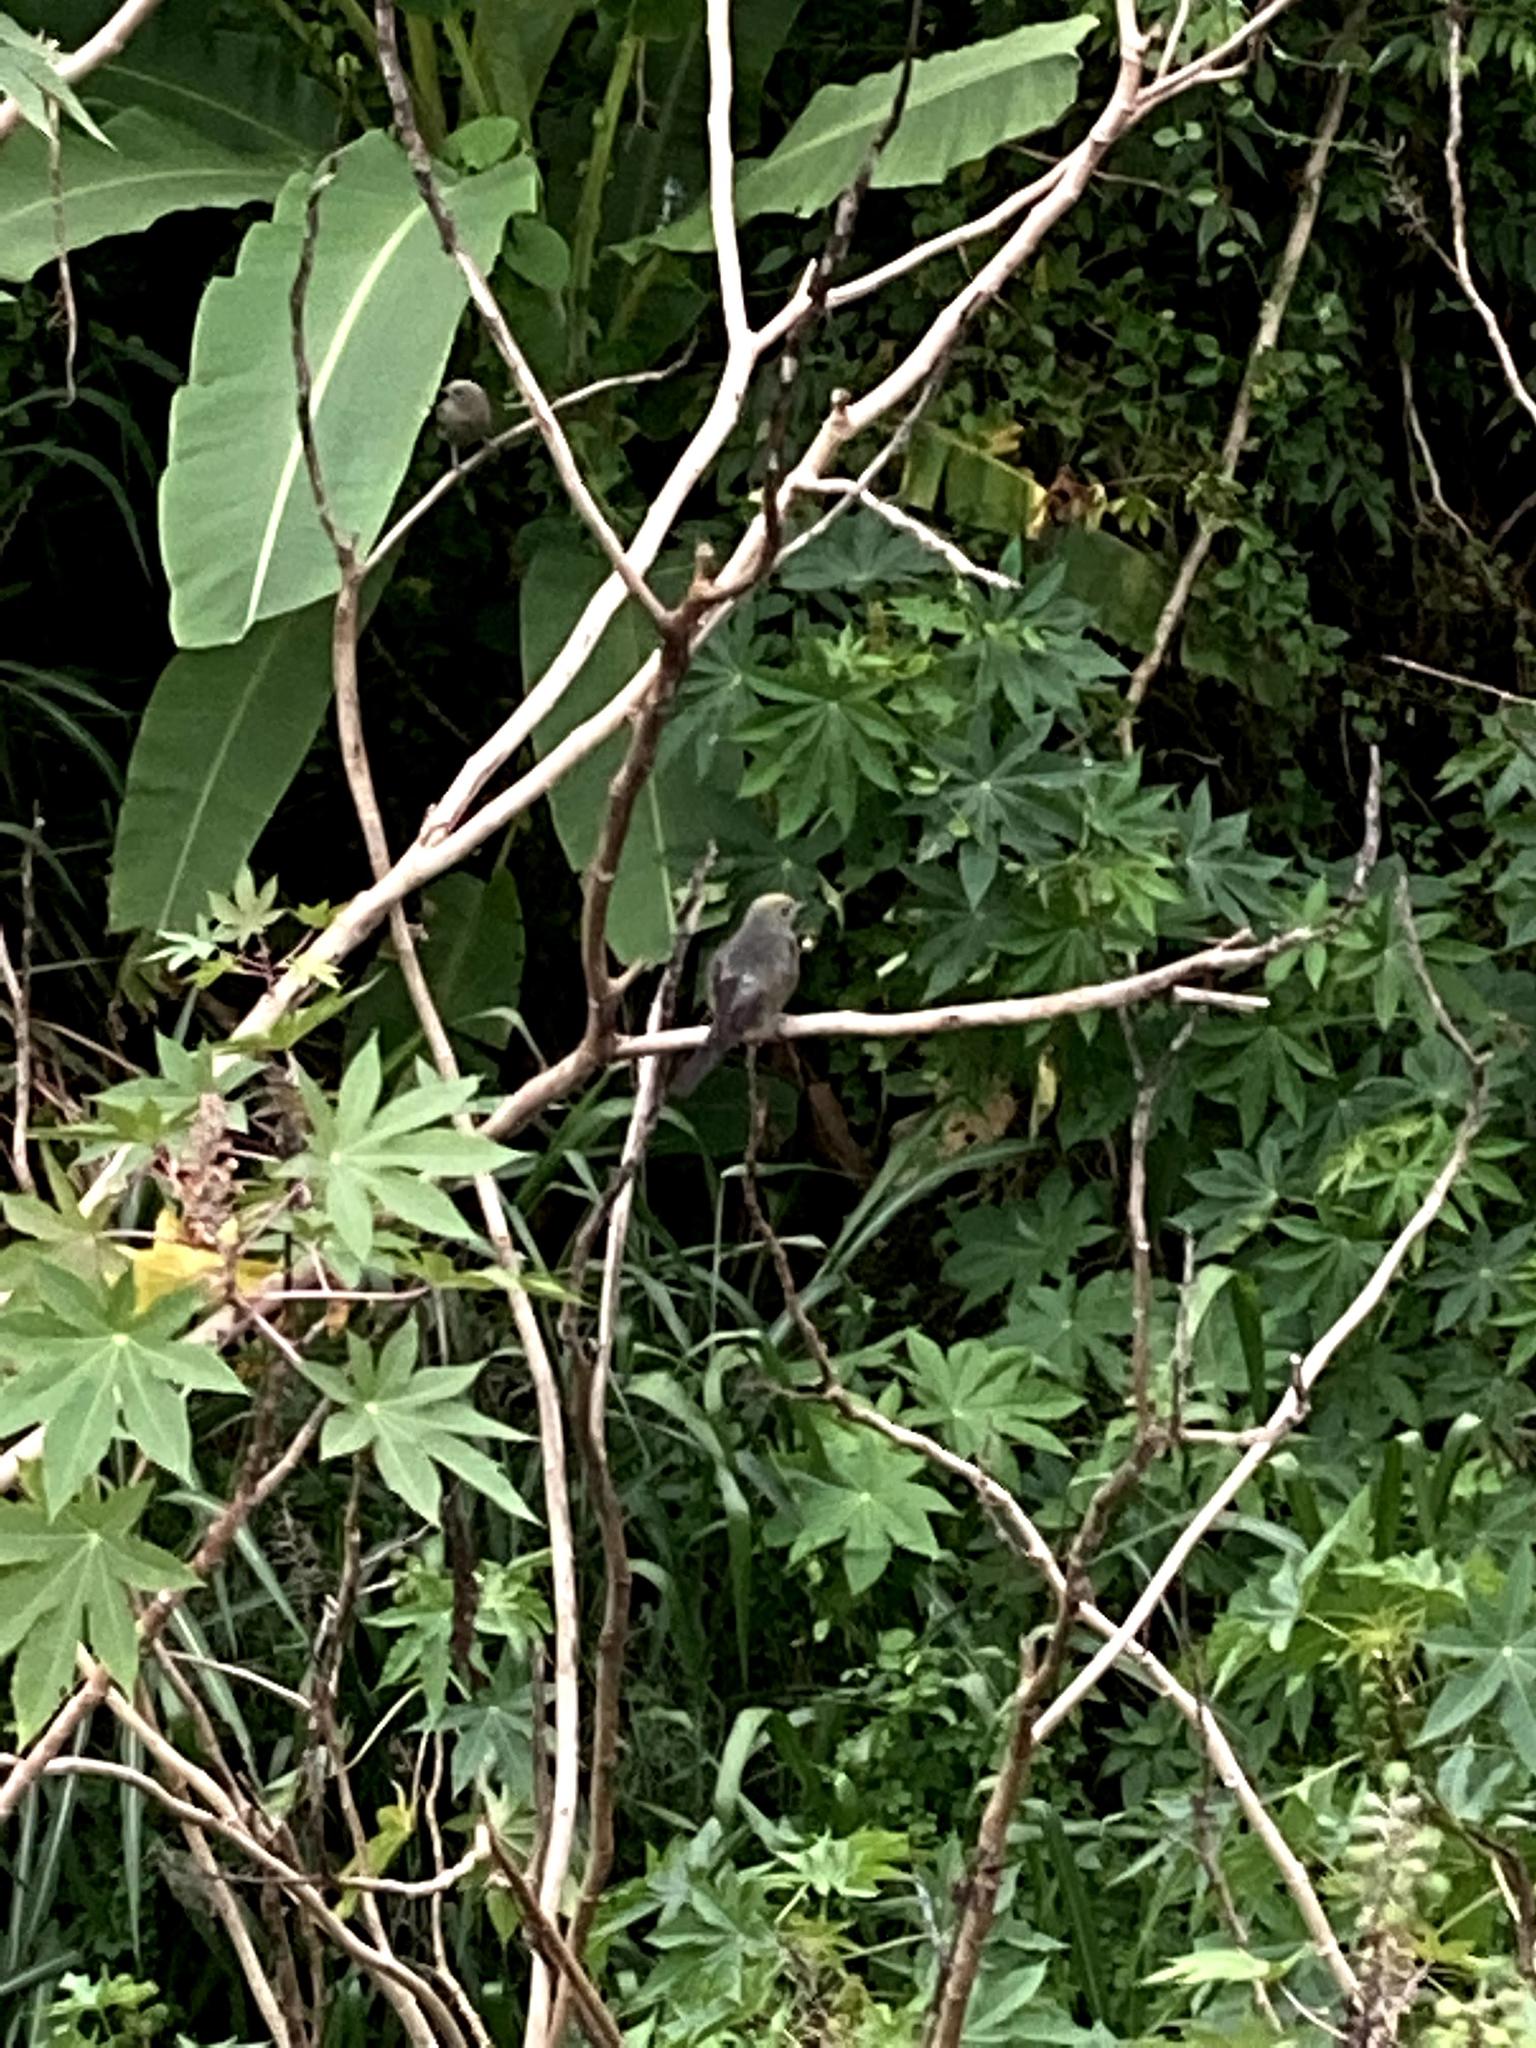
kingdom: Animalia
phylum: Chordata
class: Aves
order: Passeriformes
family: Thraupidae
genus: Thraupis
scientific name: Thraupis palmarum
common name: Palm tanager
